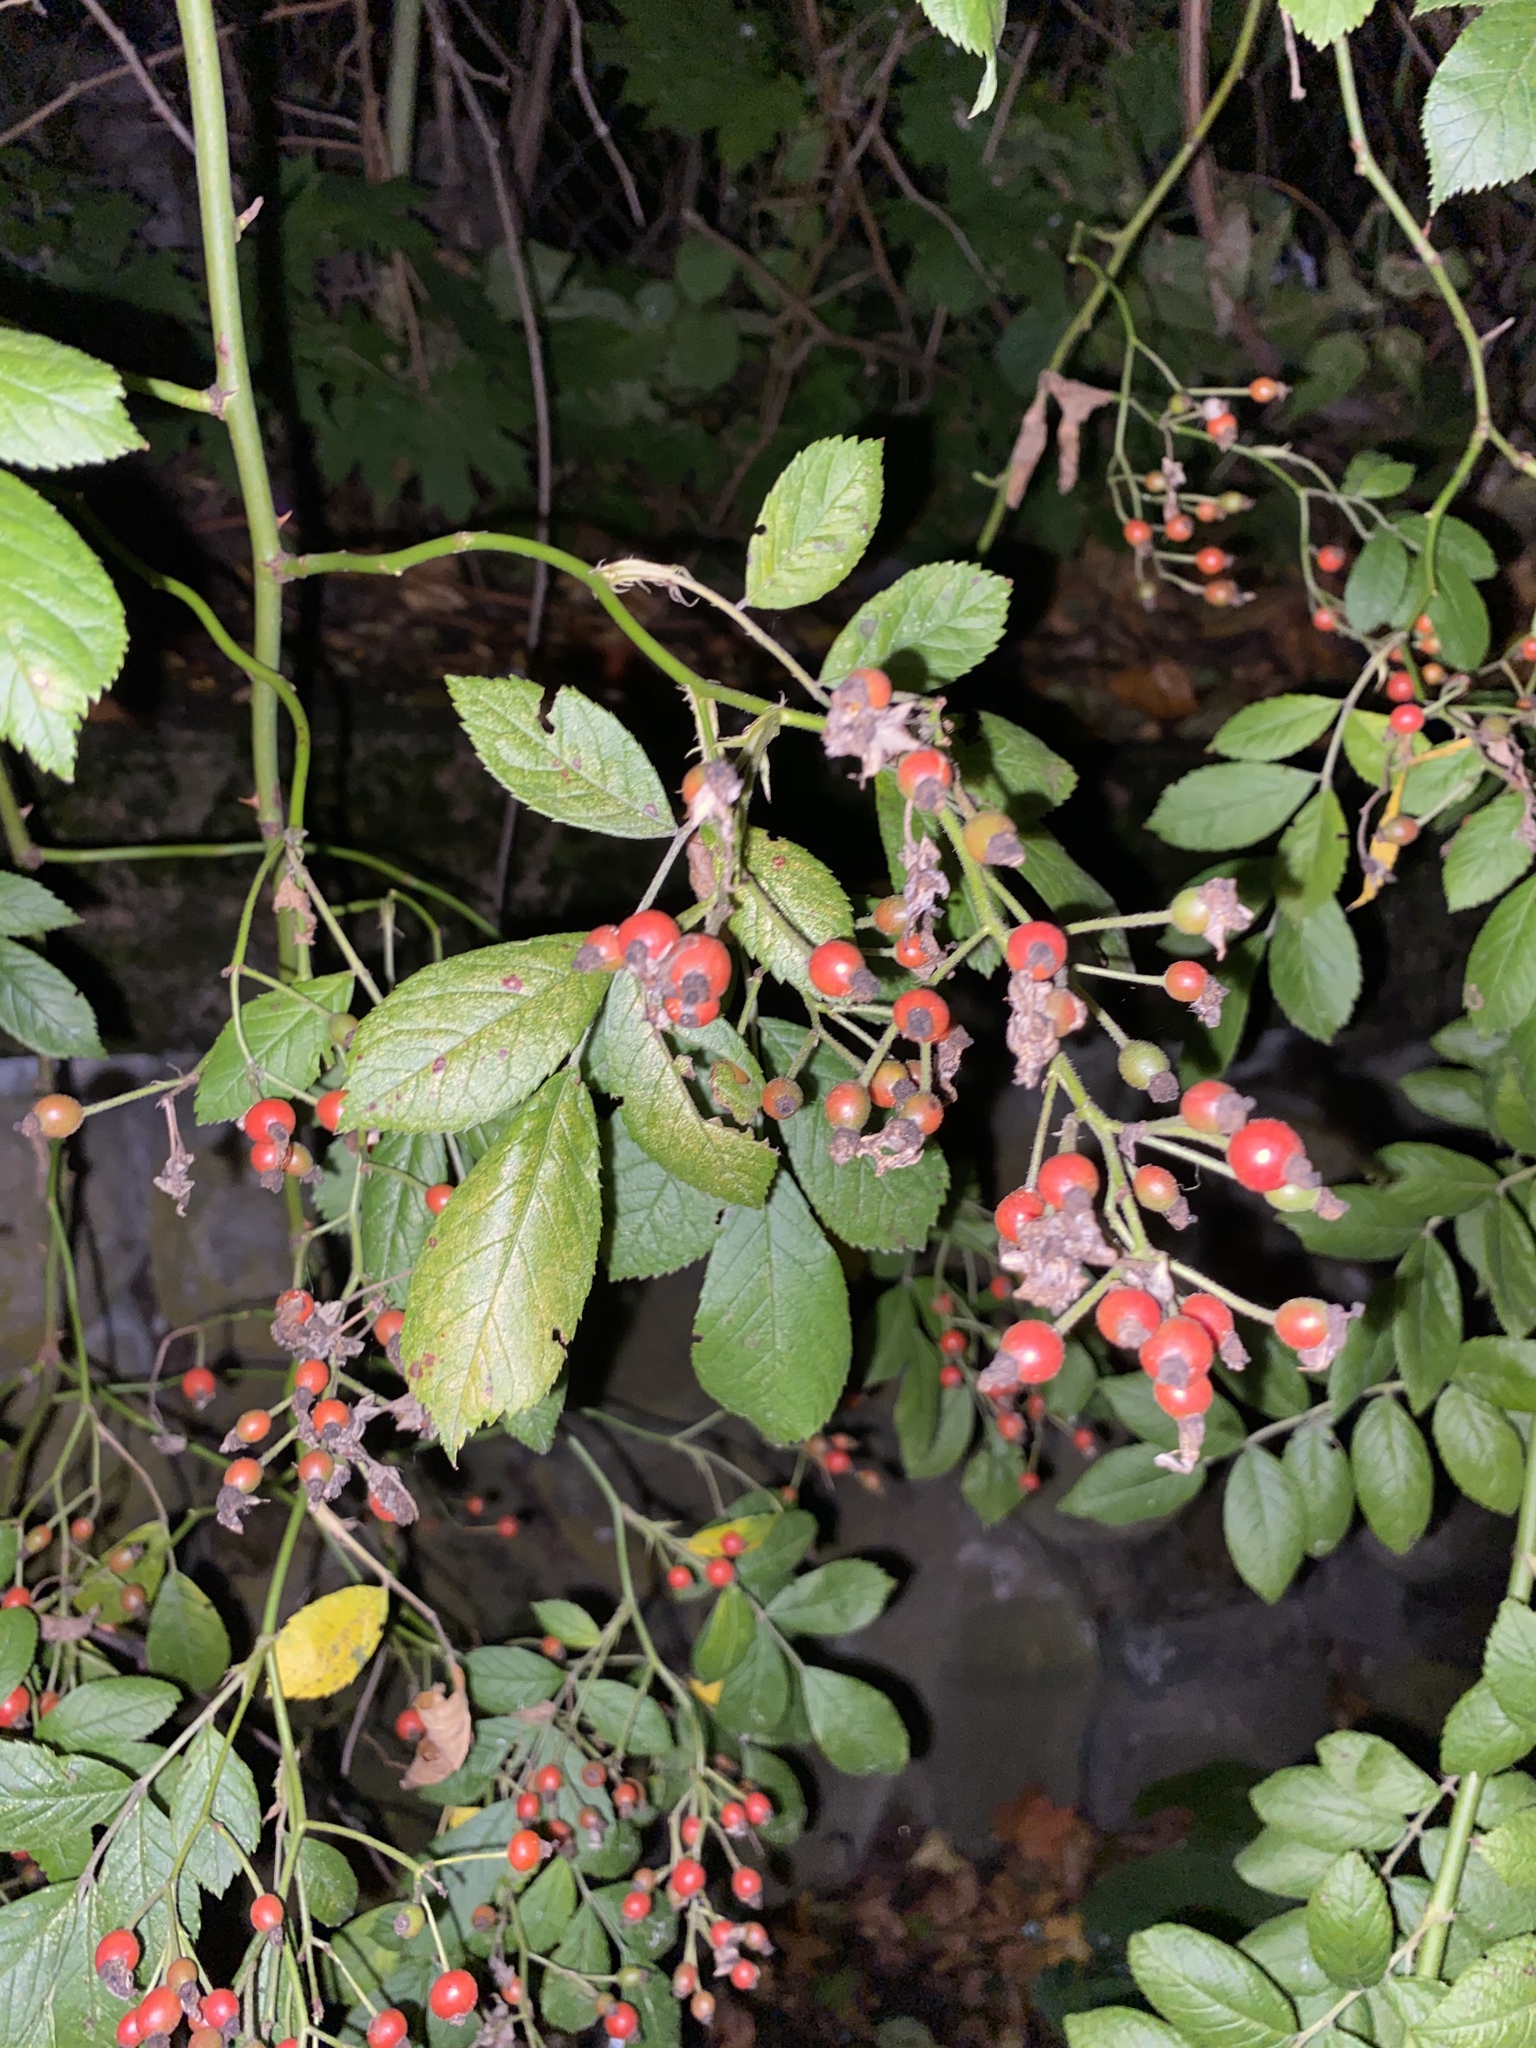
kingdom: Plantae
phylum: Tracheophyta
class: Magnoliopsida
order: Rosales
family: Rosaceae
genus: Rosa
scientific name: Rosa multiflora
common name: Multiflora rose
